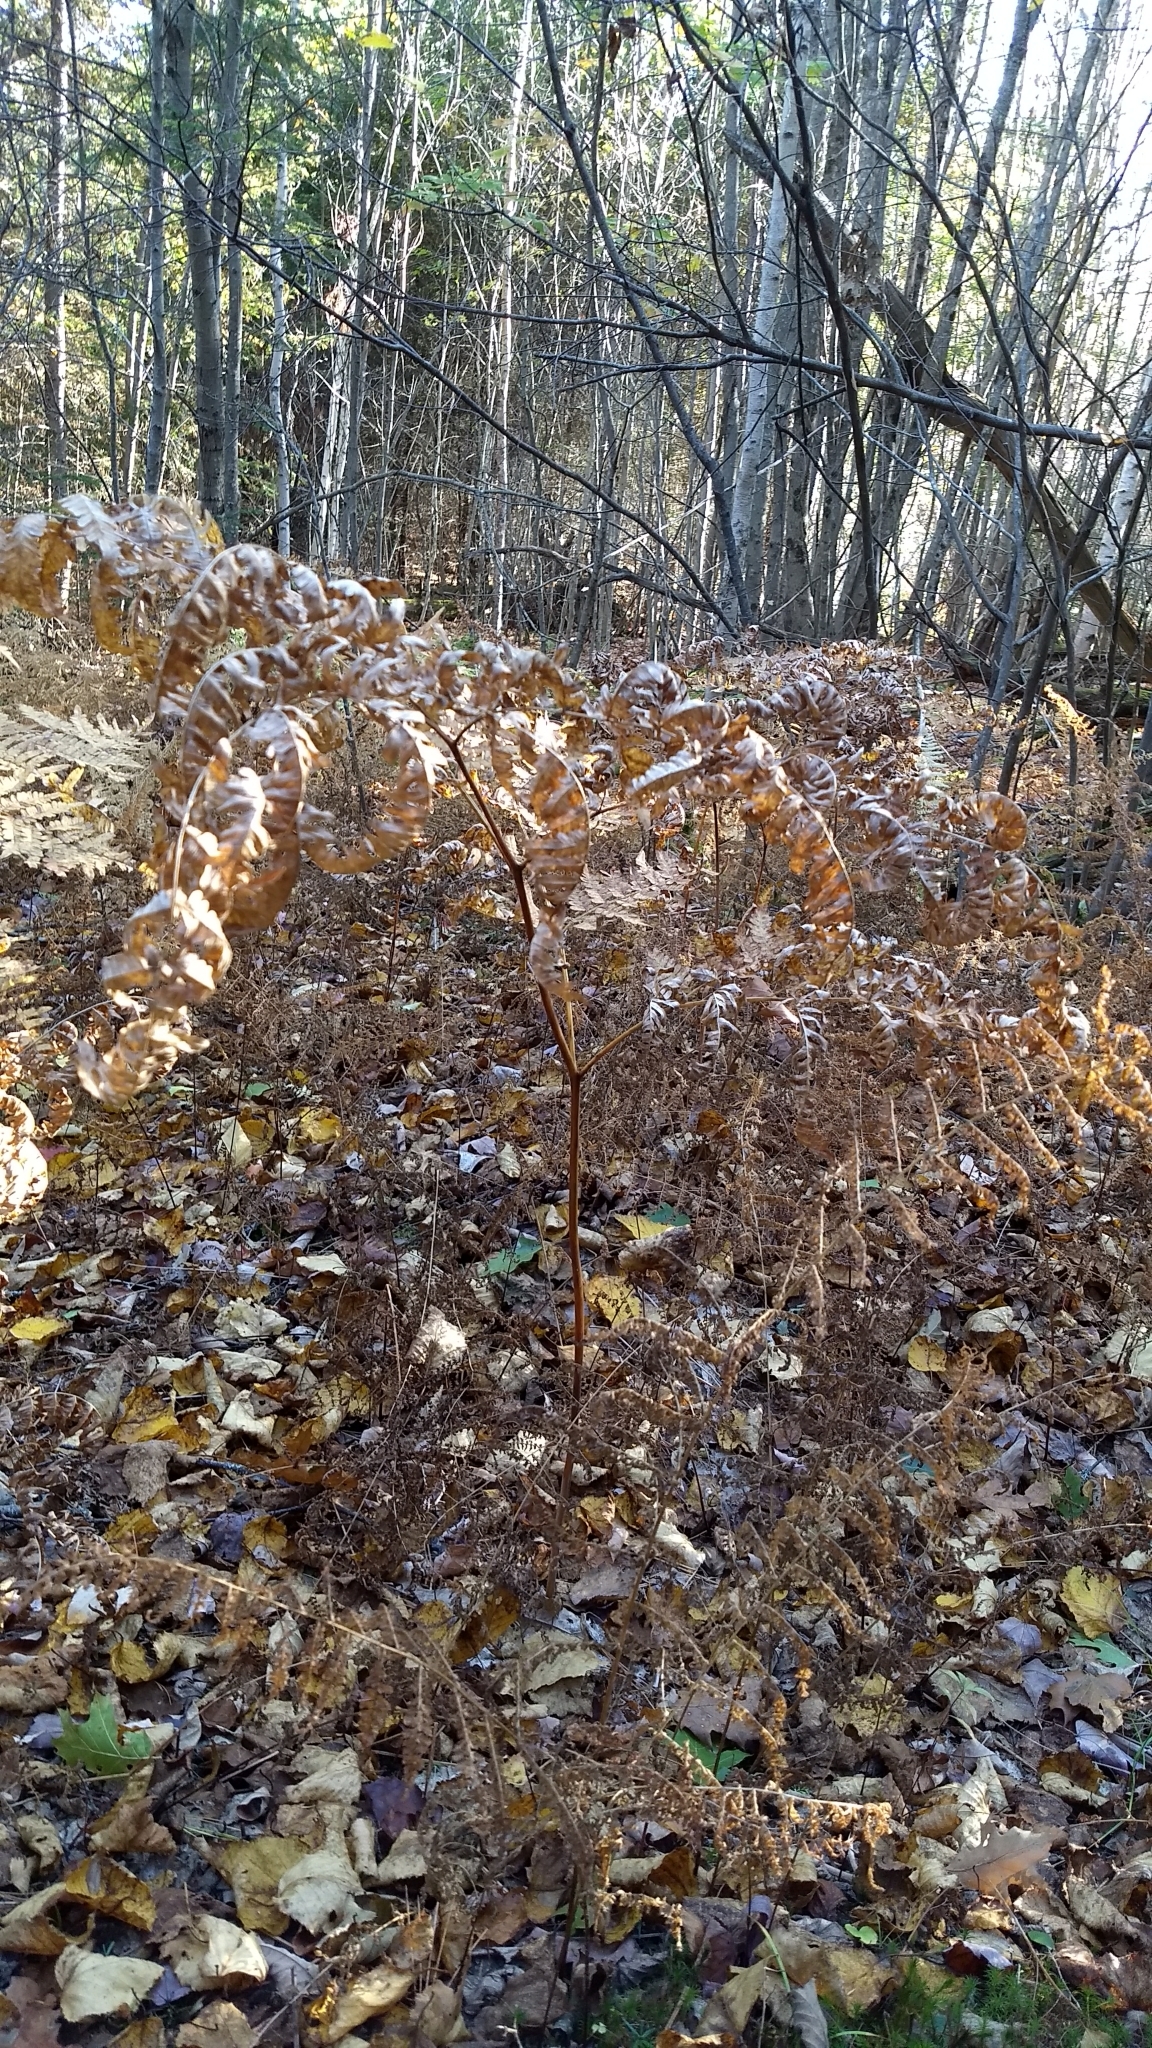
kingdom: Plantae
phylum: Tracheophyta
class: Polypodiopsida
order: Polypodiales
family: Dennstaedtiaceae
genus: Pteridium
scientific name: Pteridium aquilinum
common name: Bracken
